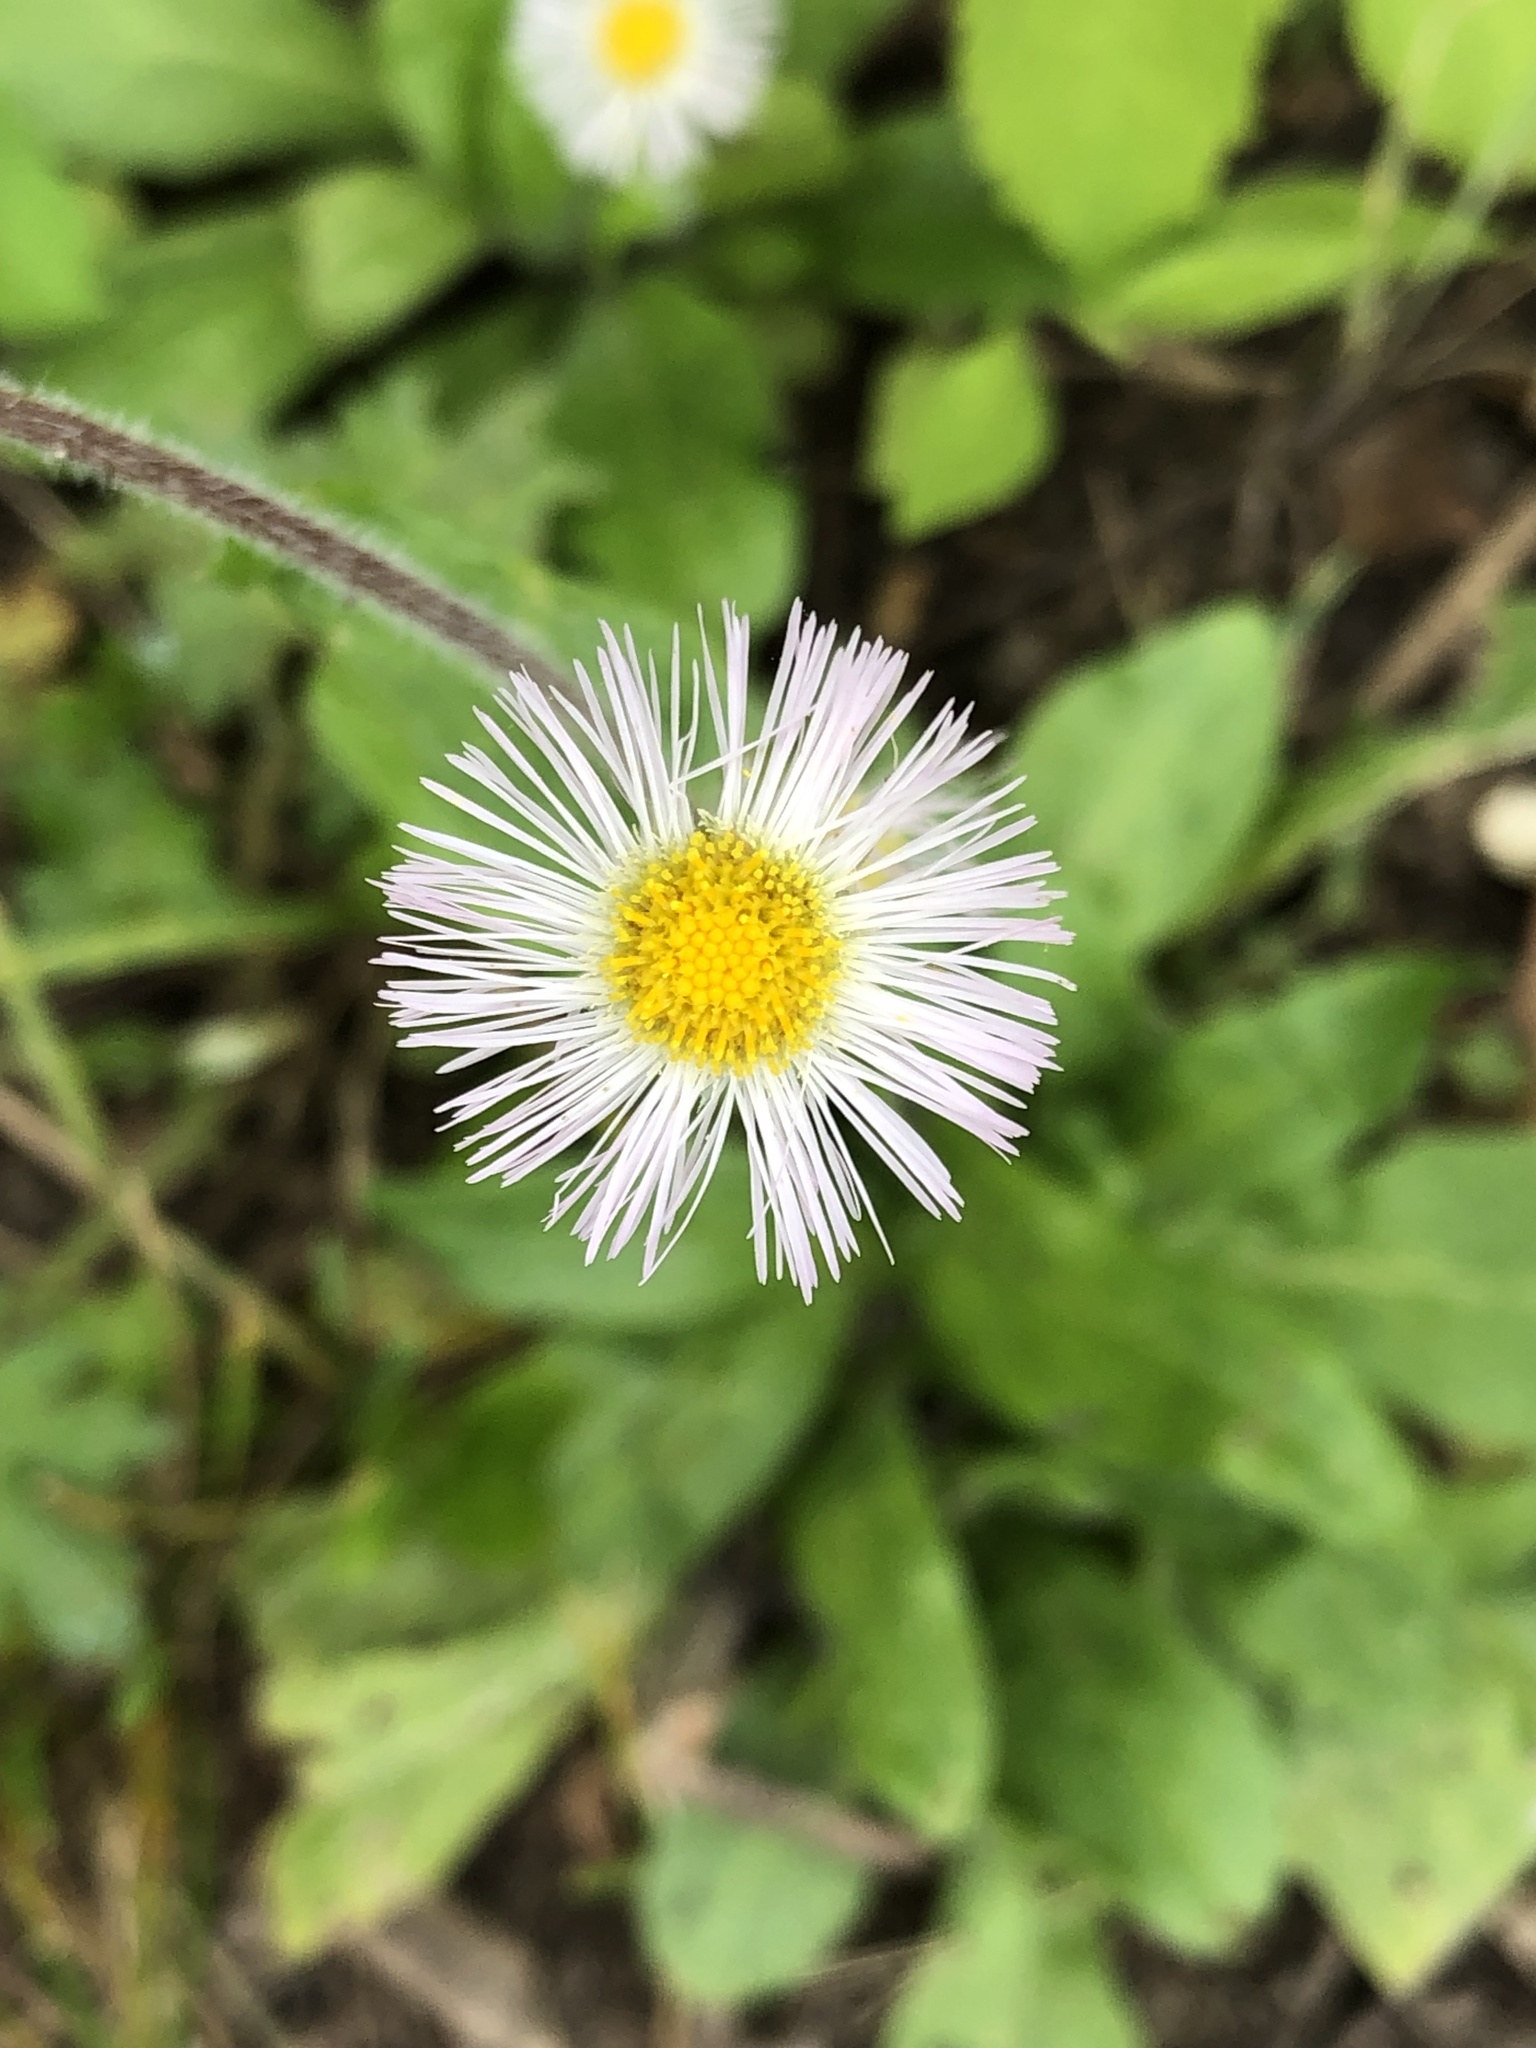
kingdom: Plantae
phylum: Tracheophyta
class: Magnoliopsida
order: Asterales
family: Asteraceae
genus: Erigeron
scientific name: Erigeron philadelphicus
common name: Robin's-plantain
